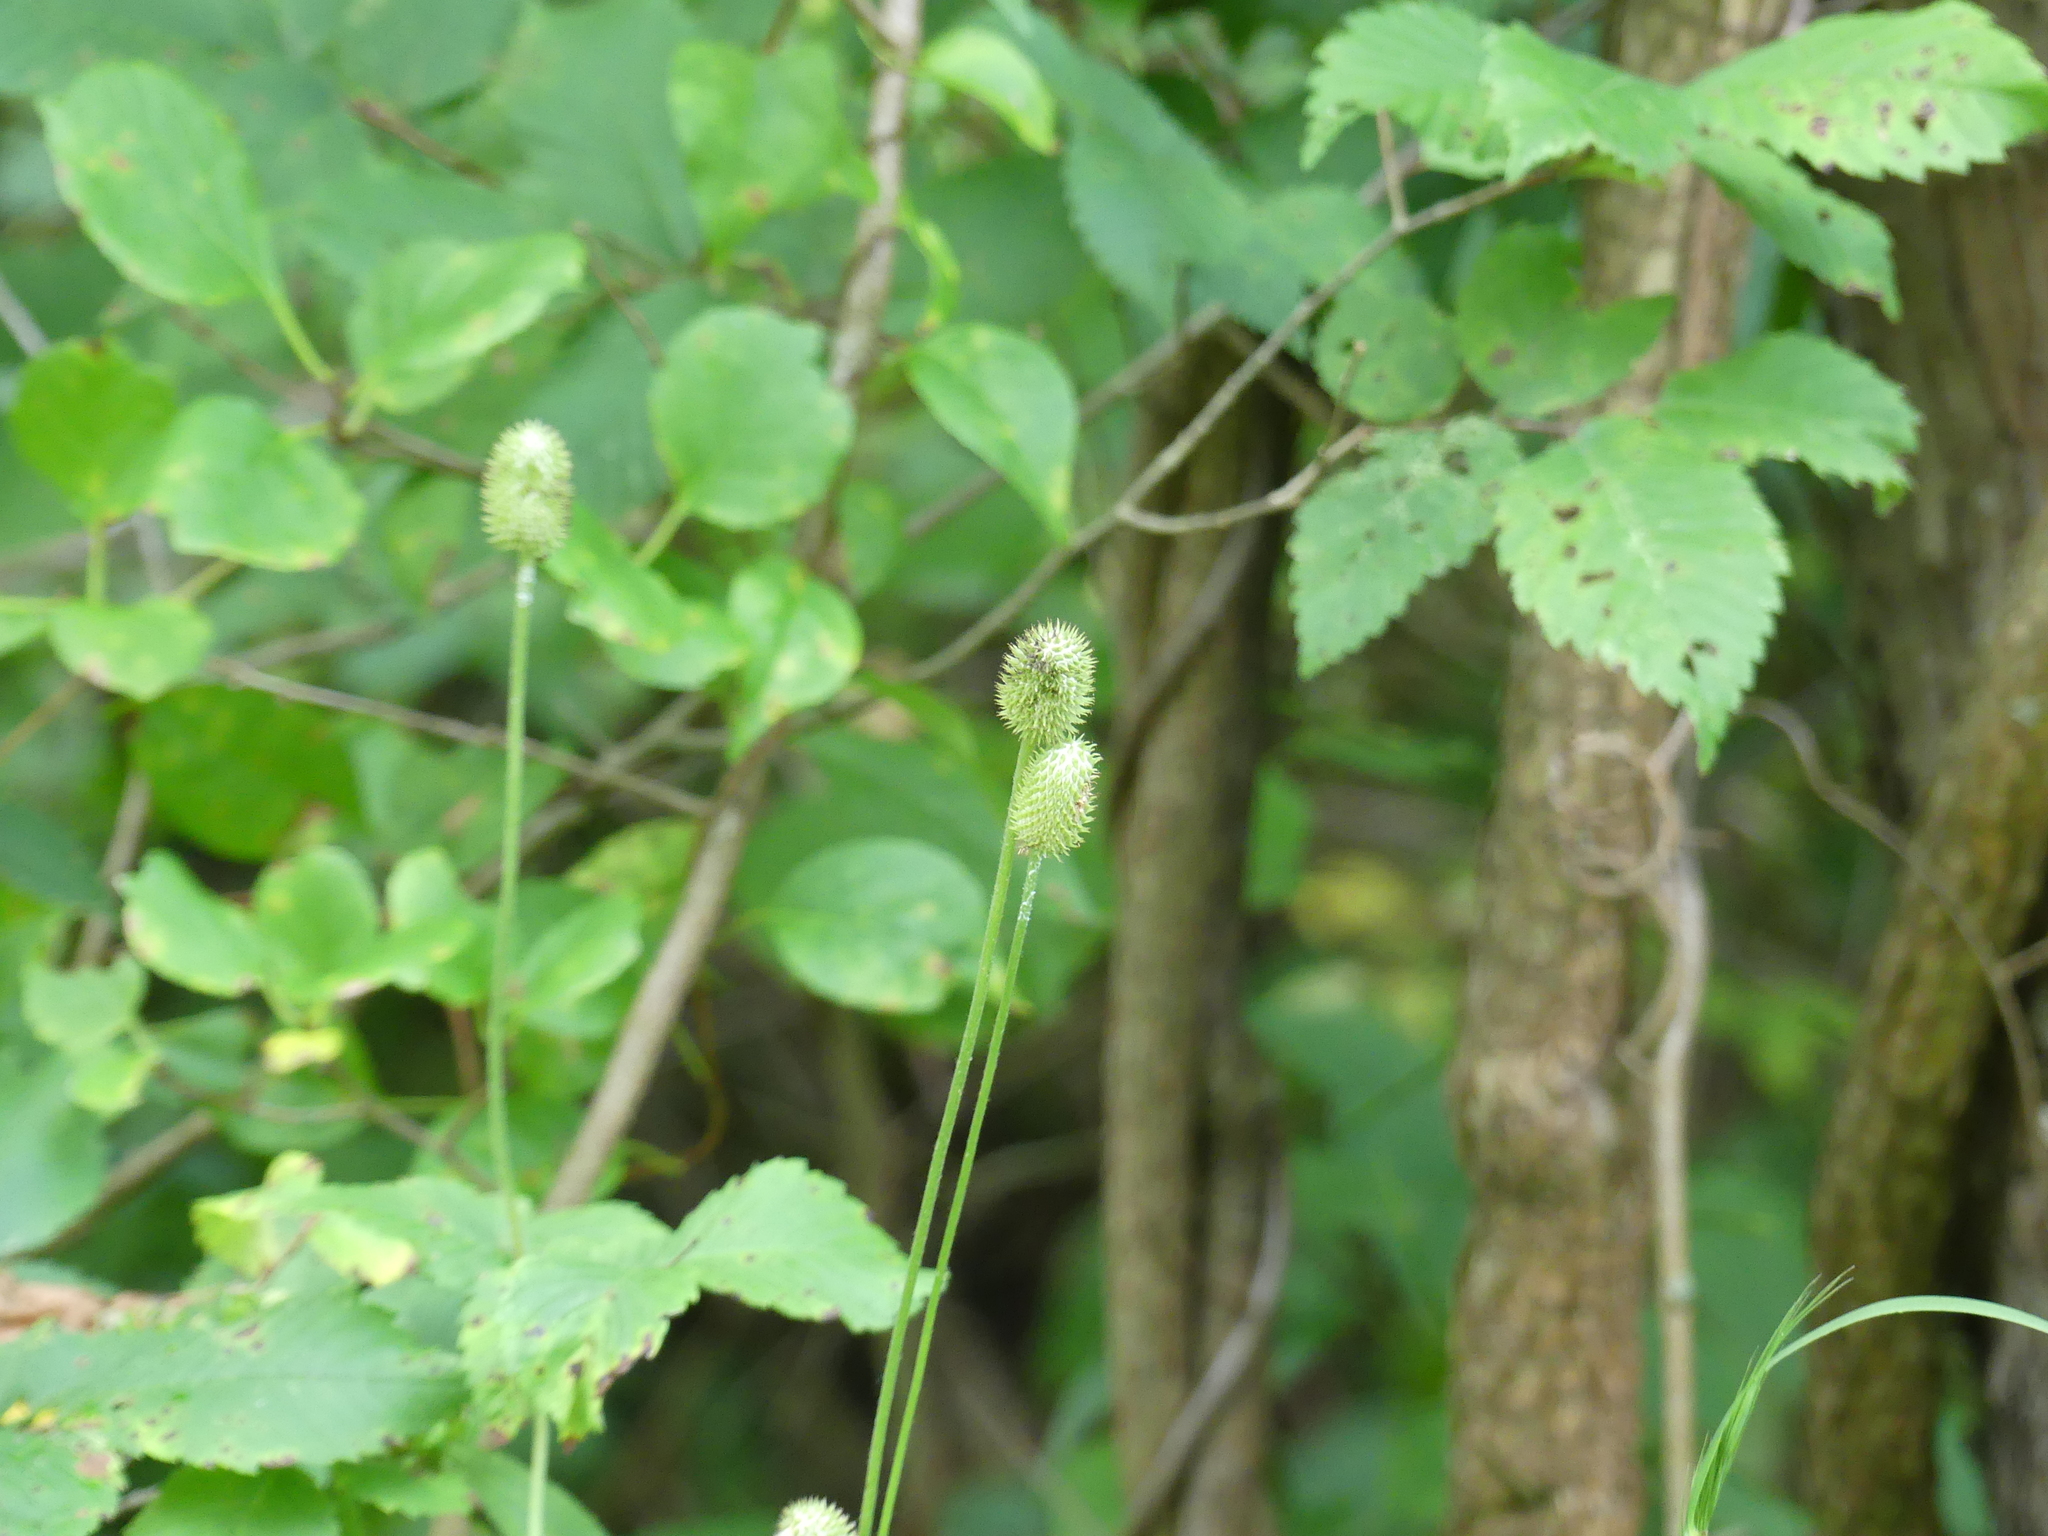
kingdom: Plantae
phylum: Tracheophyta
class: Magnoliopsida
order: Ranunculales
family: Ranunculaceae
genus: Anemone
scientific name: Anemone virginiana
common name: Tall anemone
